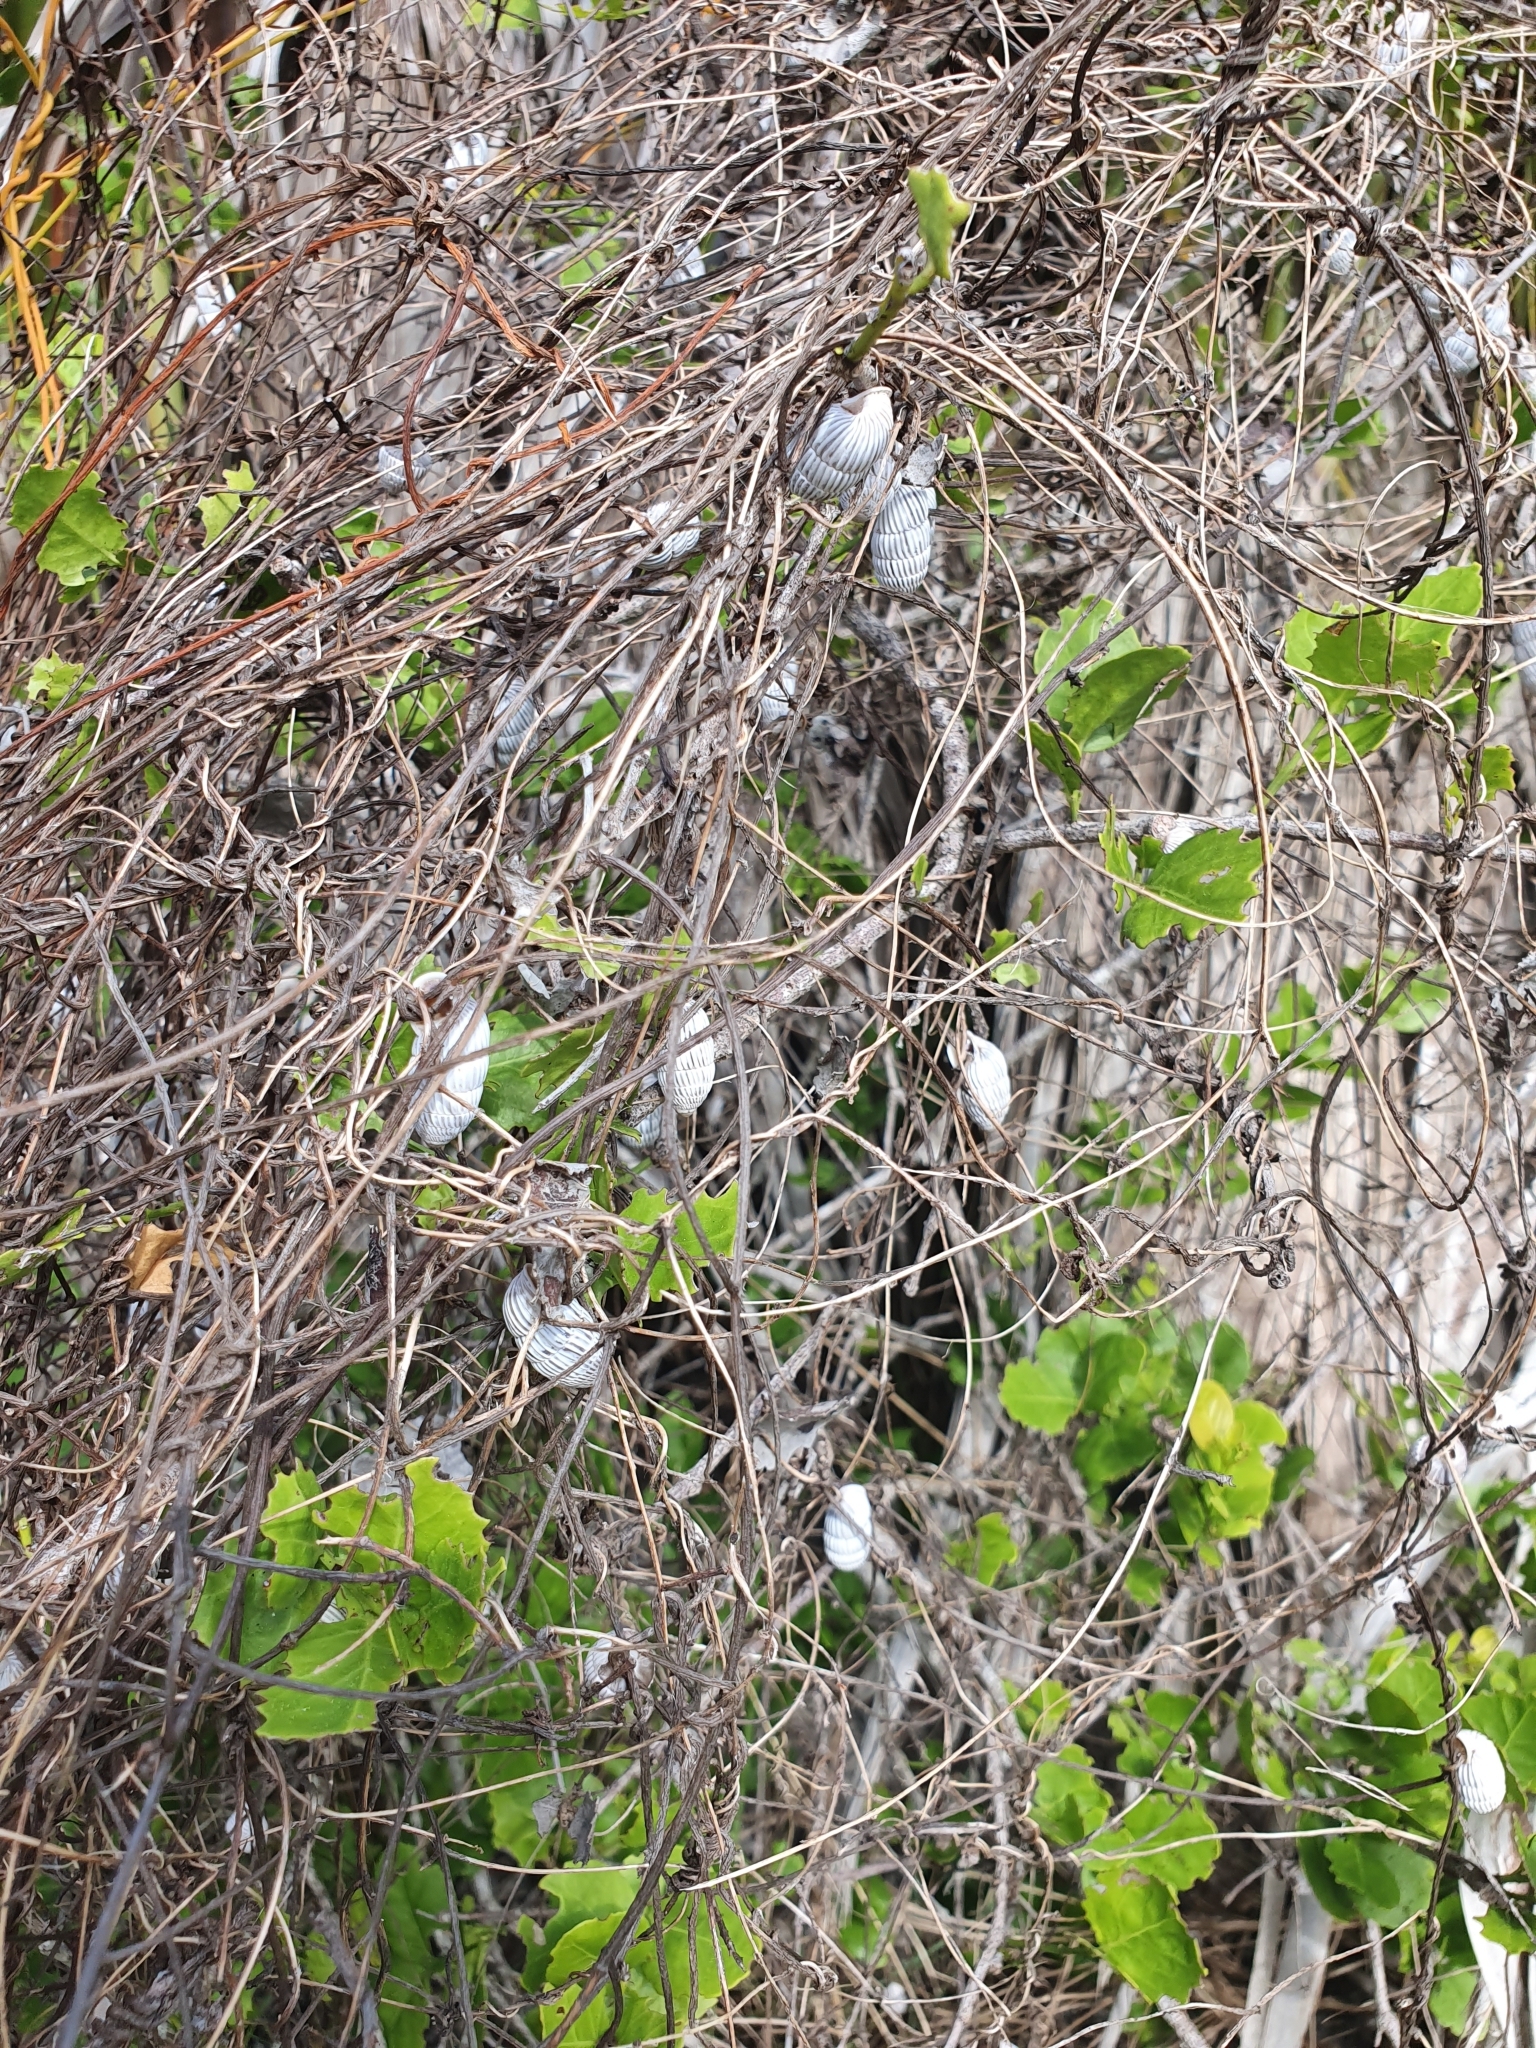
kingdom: Animalia
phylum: Mollusca
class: Gastropoda
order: Stylommatophora
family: Cerionidae
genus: Cerion
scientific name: Cerion striatellum
